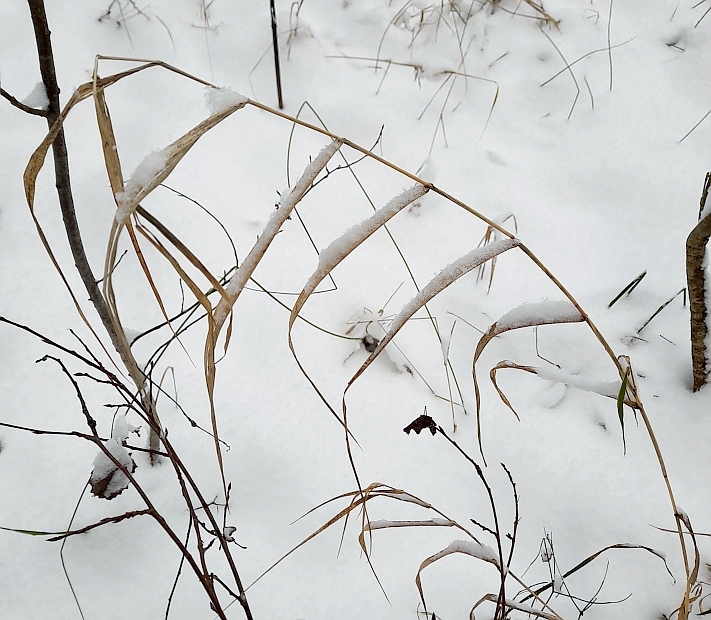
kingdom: Plantae
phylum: Tracheophyta
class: Liliopsida
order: Poales
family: Poaceae
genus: Phragmites
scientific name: Phragmites australis
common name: Common reed
